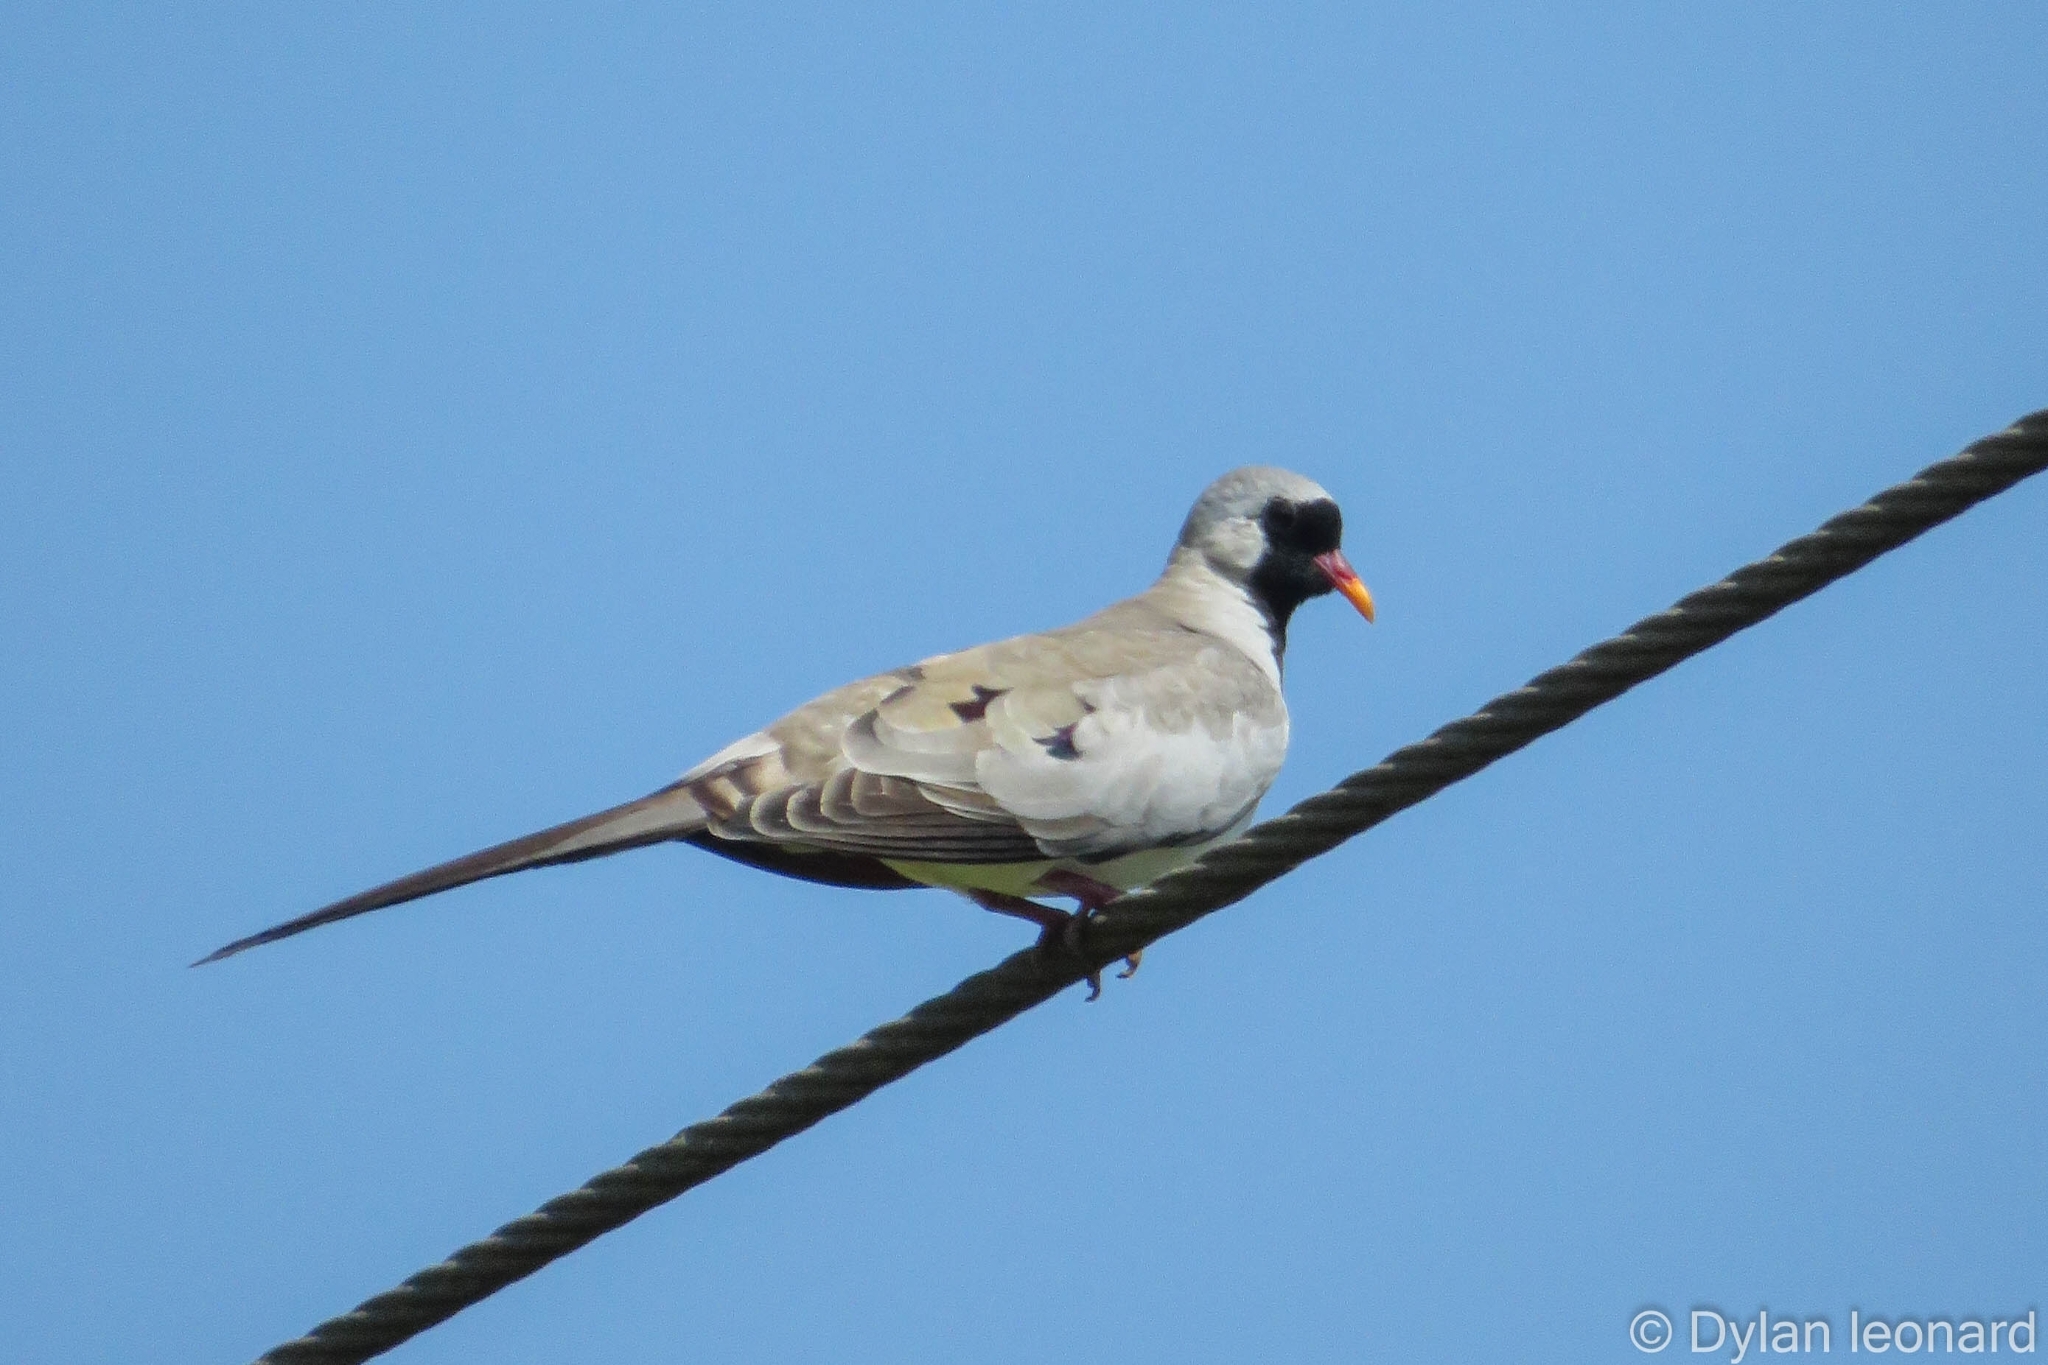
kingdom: Animalia
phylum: Chordata
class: Aves
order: Columbiformes
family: Columbidae
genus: Oena
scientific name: Oena capensis
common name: Namaqua dove
